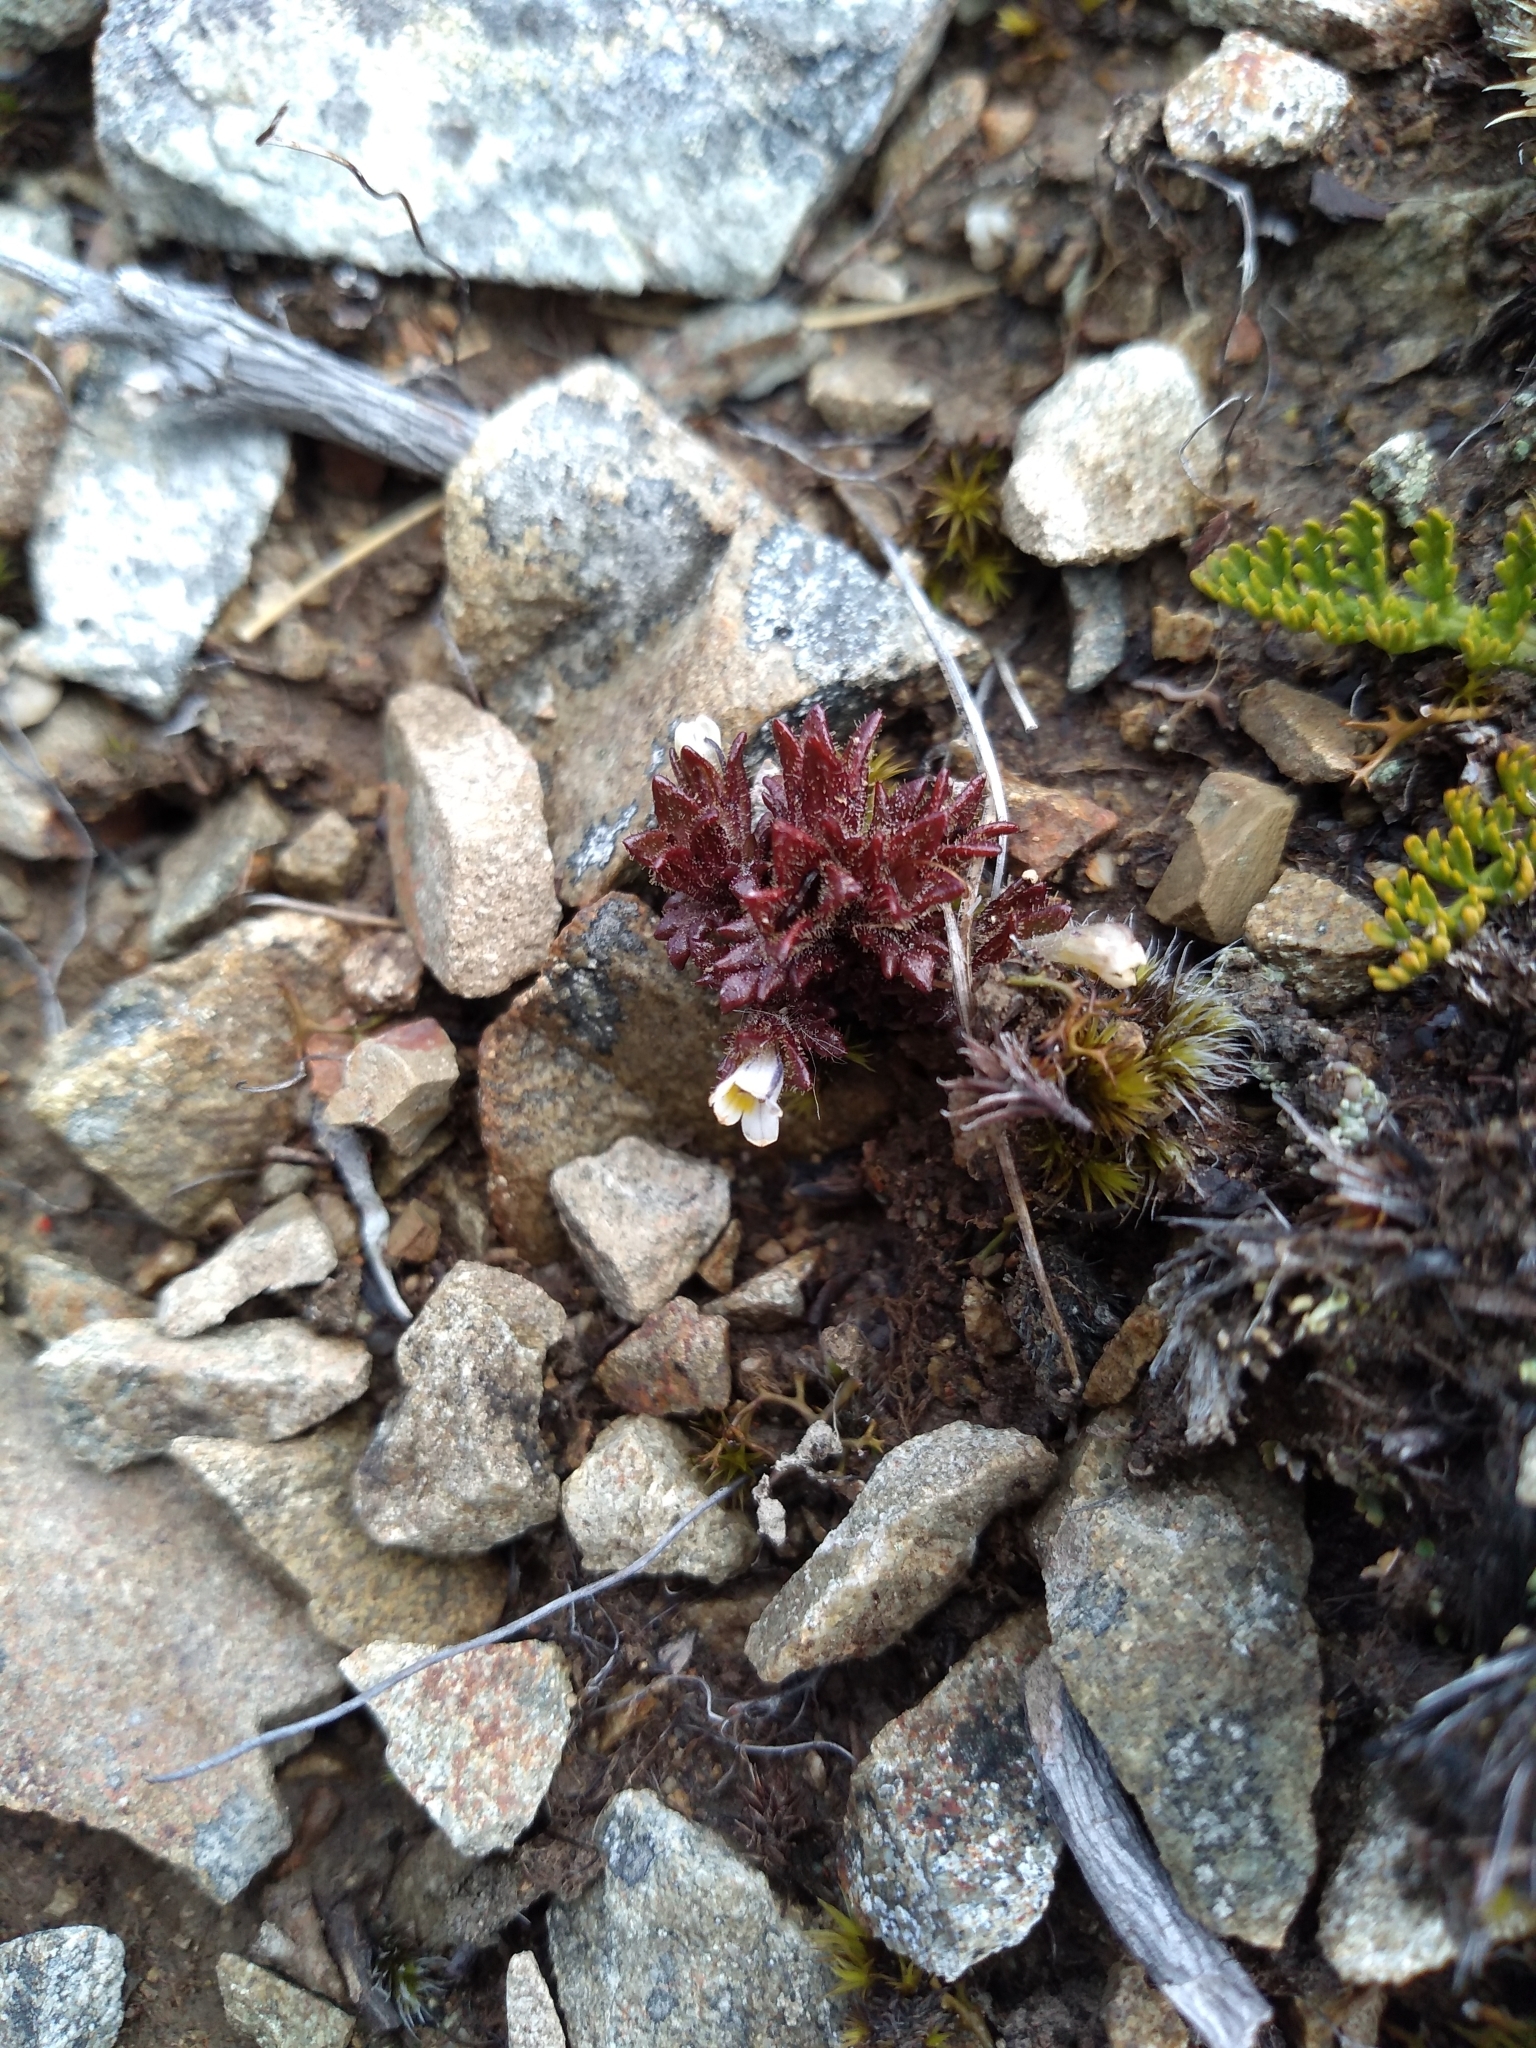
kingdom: Plantae
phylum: Tracheophyta
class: Magnoliopsida
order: Lamiales
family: Orobanchaceae
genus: Euphrasia
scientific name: Euphrasia zelandica
